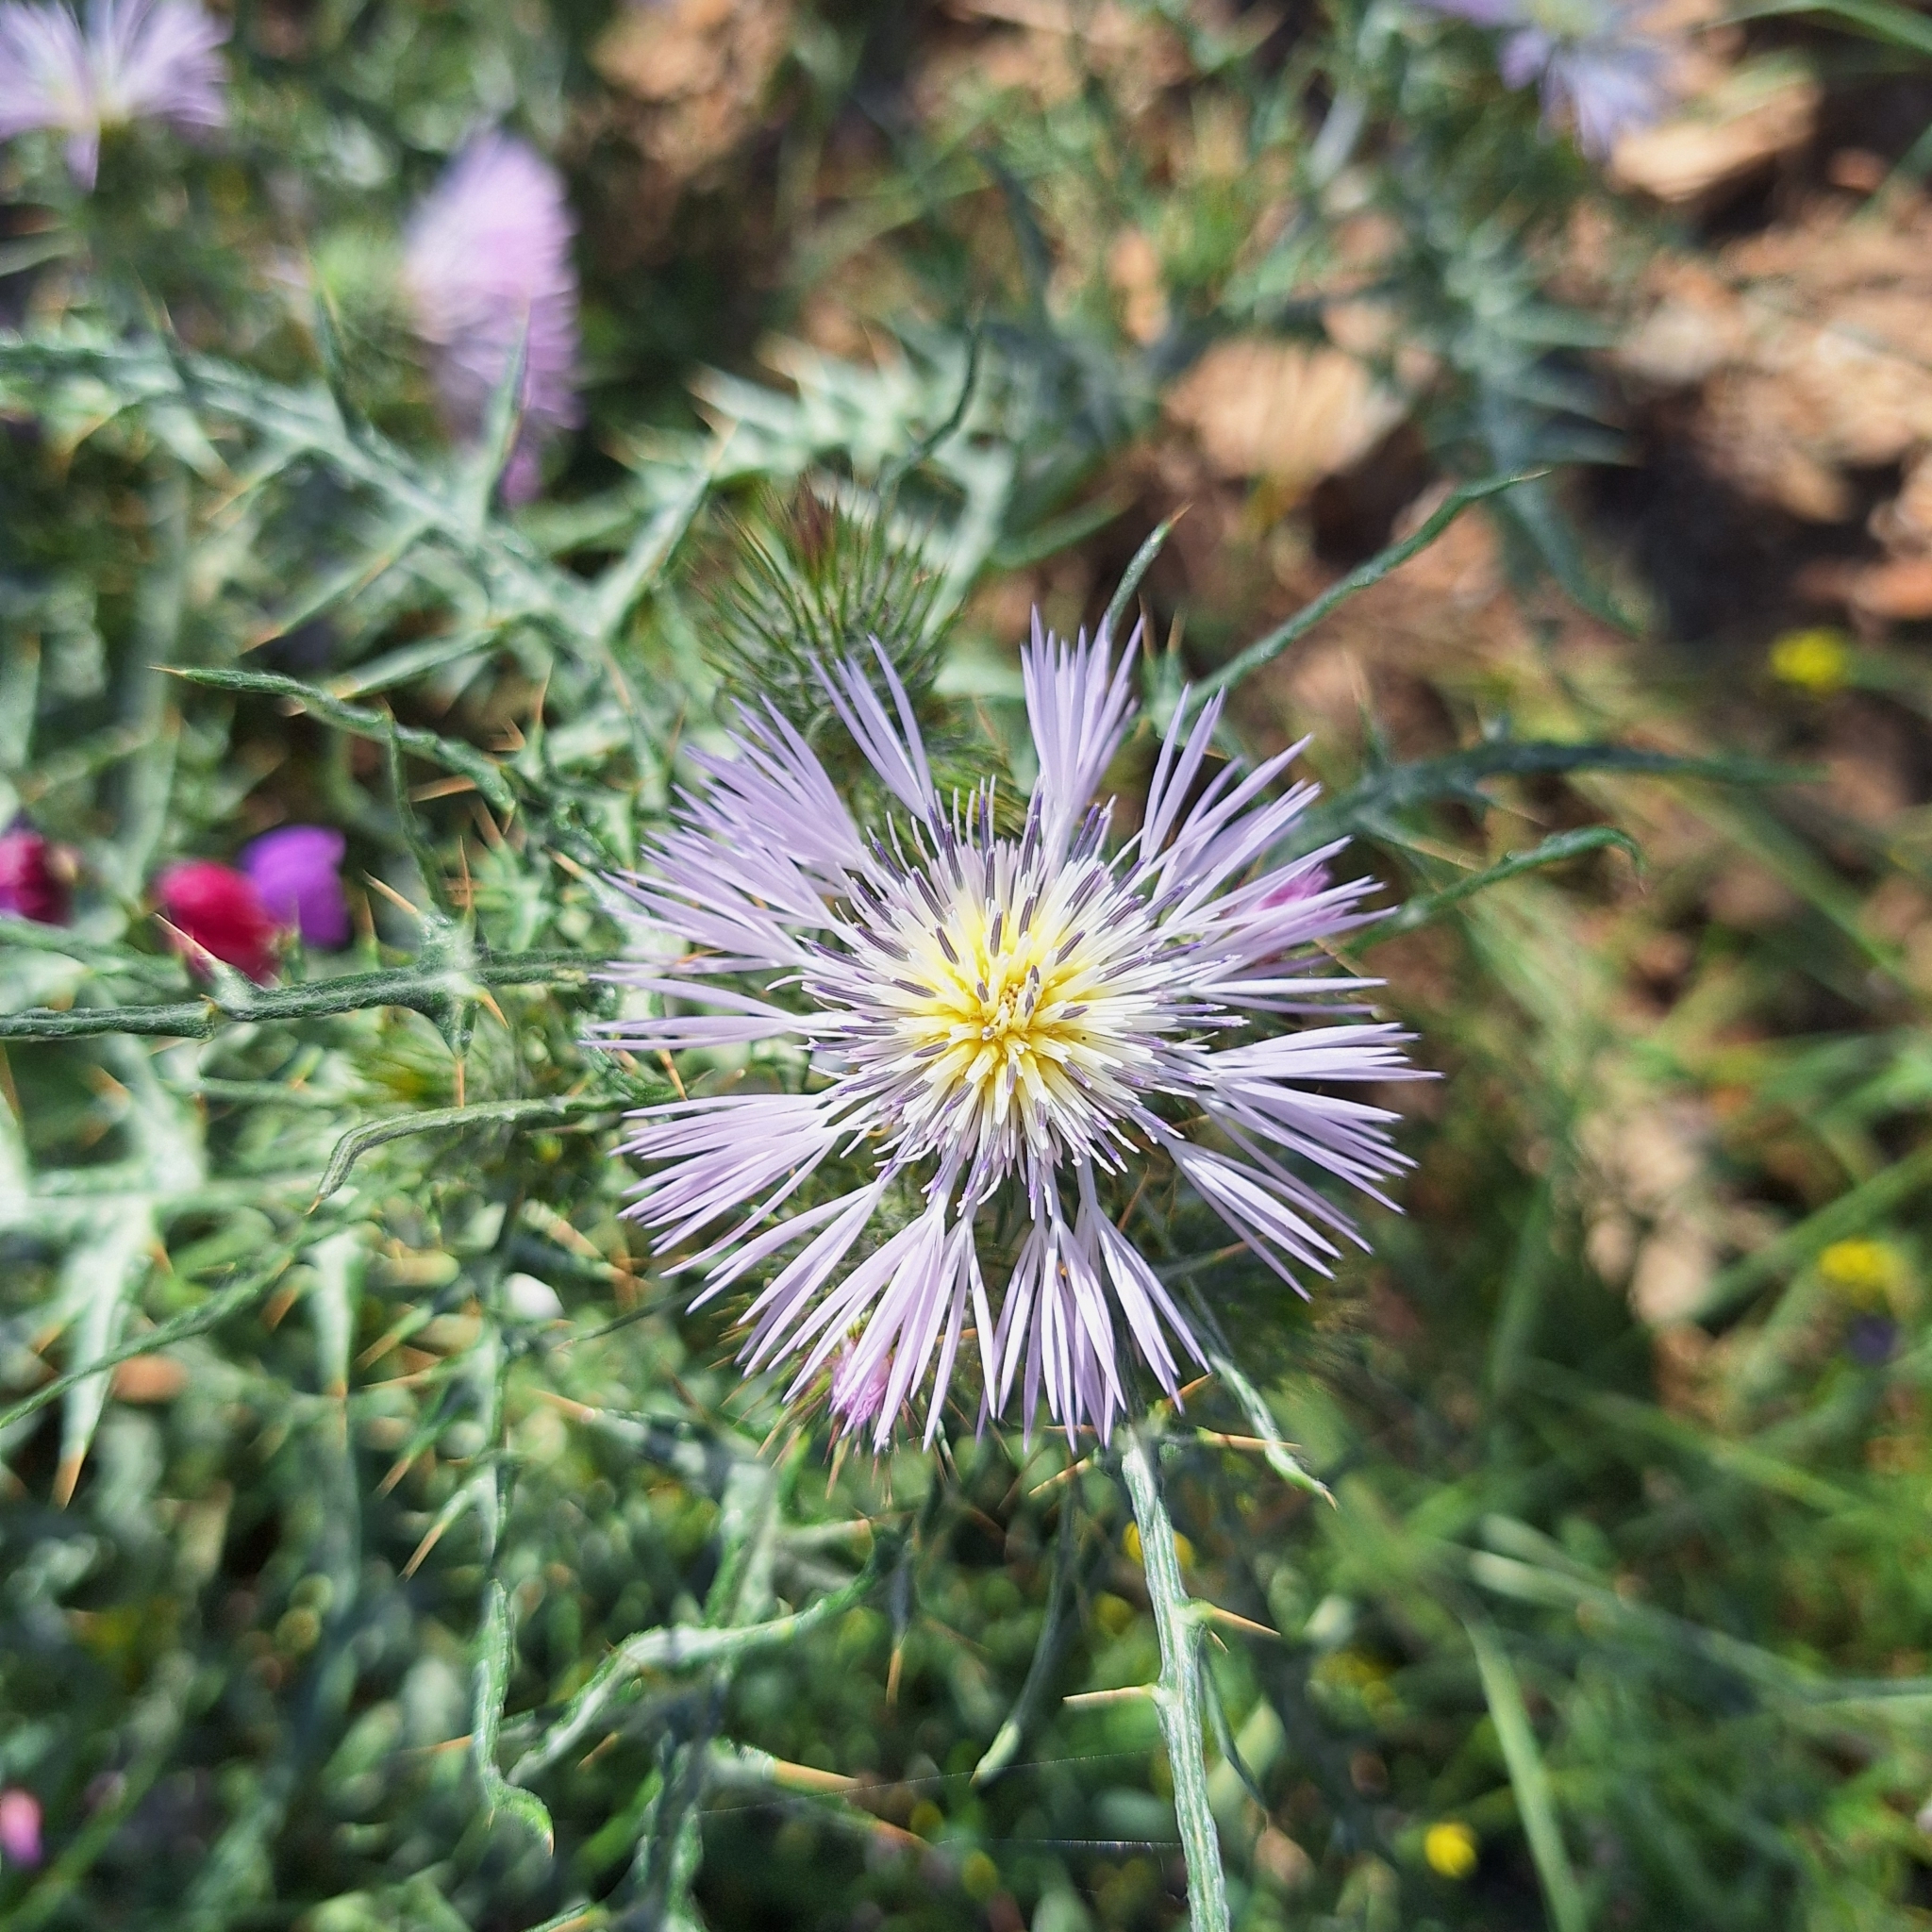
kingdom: Plantae
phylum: Tracheophyta
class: Magnoliopsida
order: Asterales
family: Asteraceae
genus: Galactites
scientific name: Galactites tomentosa
